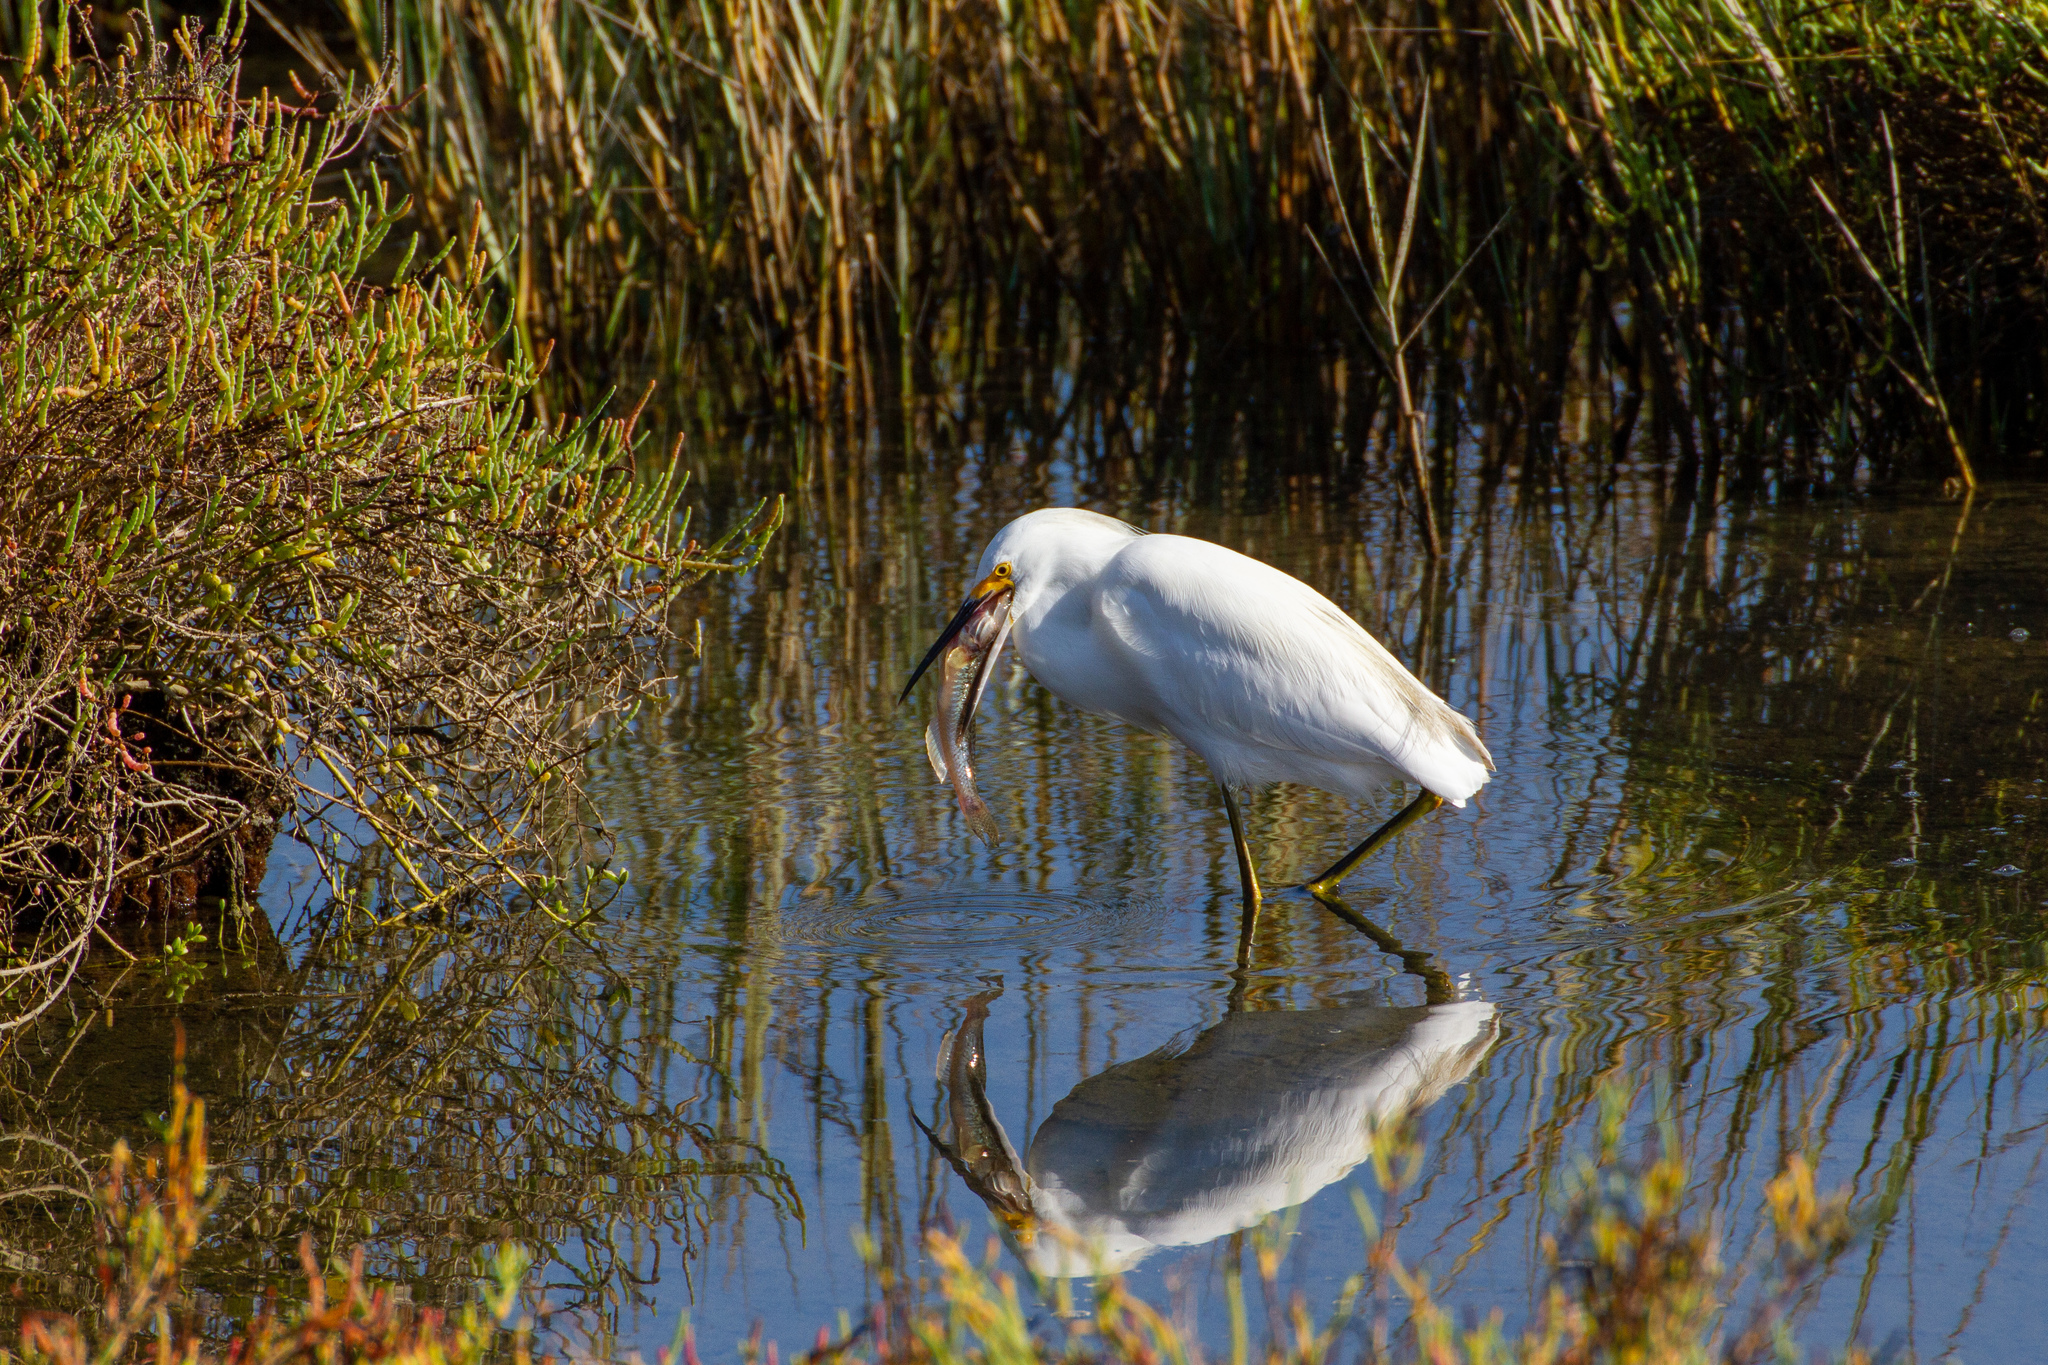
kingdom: Animalia
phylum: Chordata
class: Aves
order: Pelecaniformes
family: Ardeidae
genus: Egretta
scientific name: Egretta thula
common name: Snowy egret
